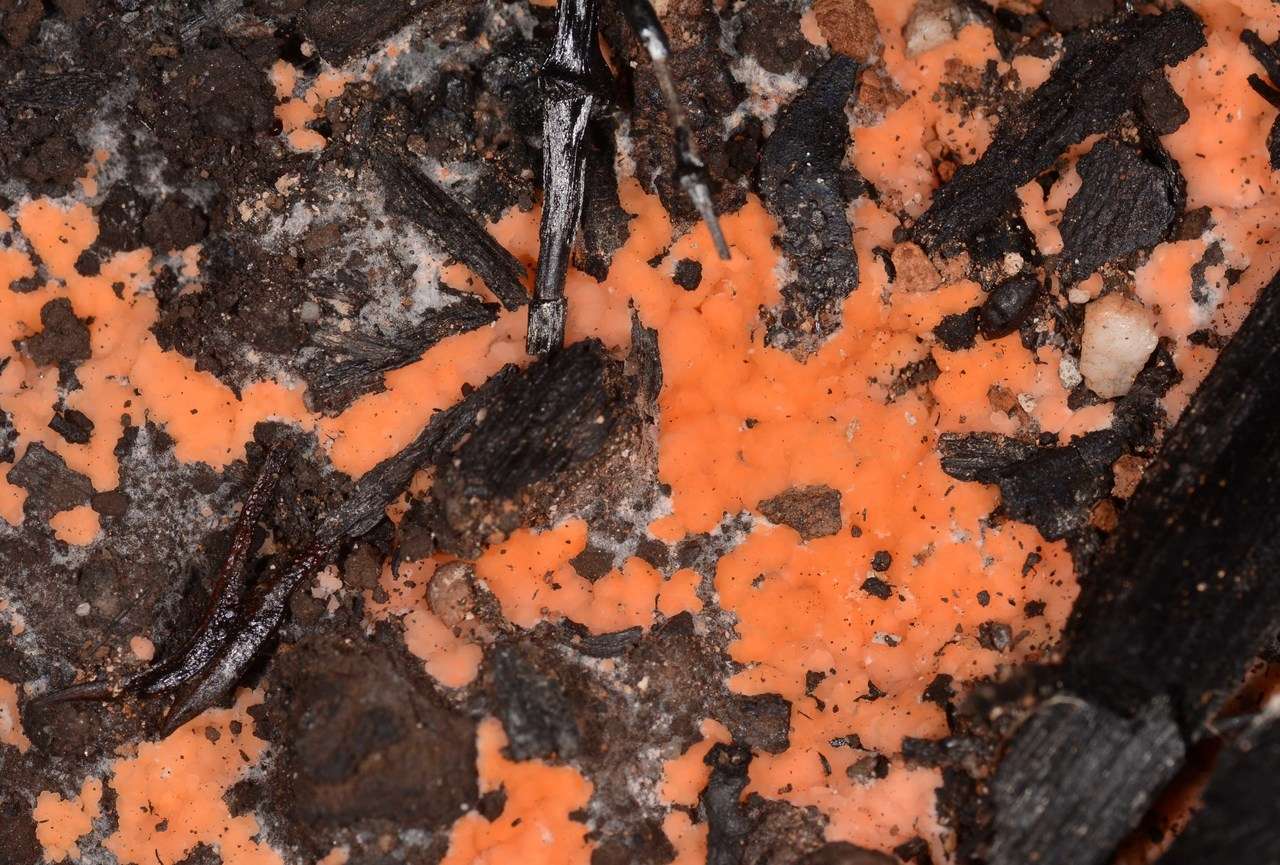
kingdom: Fungi
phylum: Ascomycota
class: Pezizomycetes
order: Pezizales
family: Pyronemataceae
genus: Pyronema
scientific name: Pyronema omphalodes
